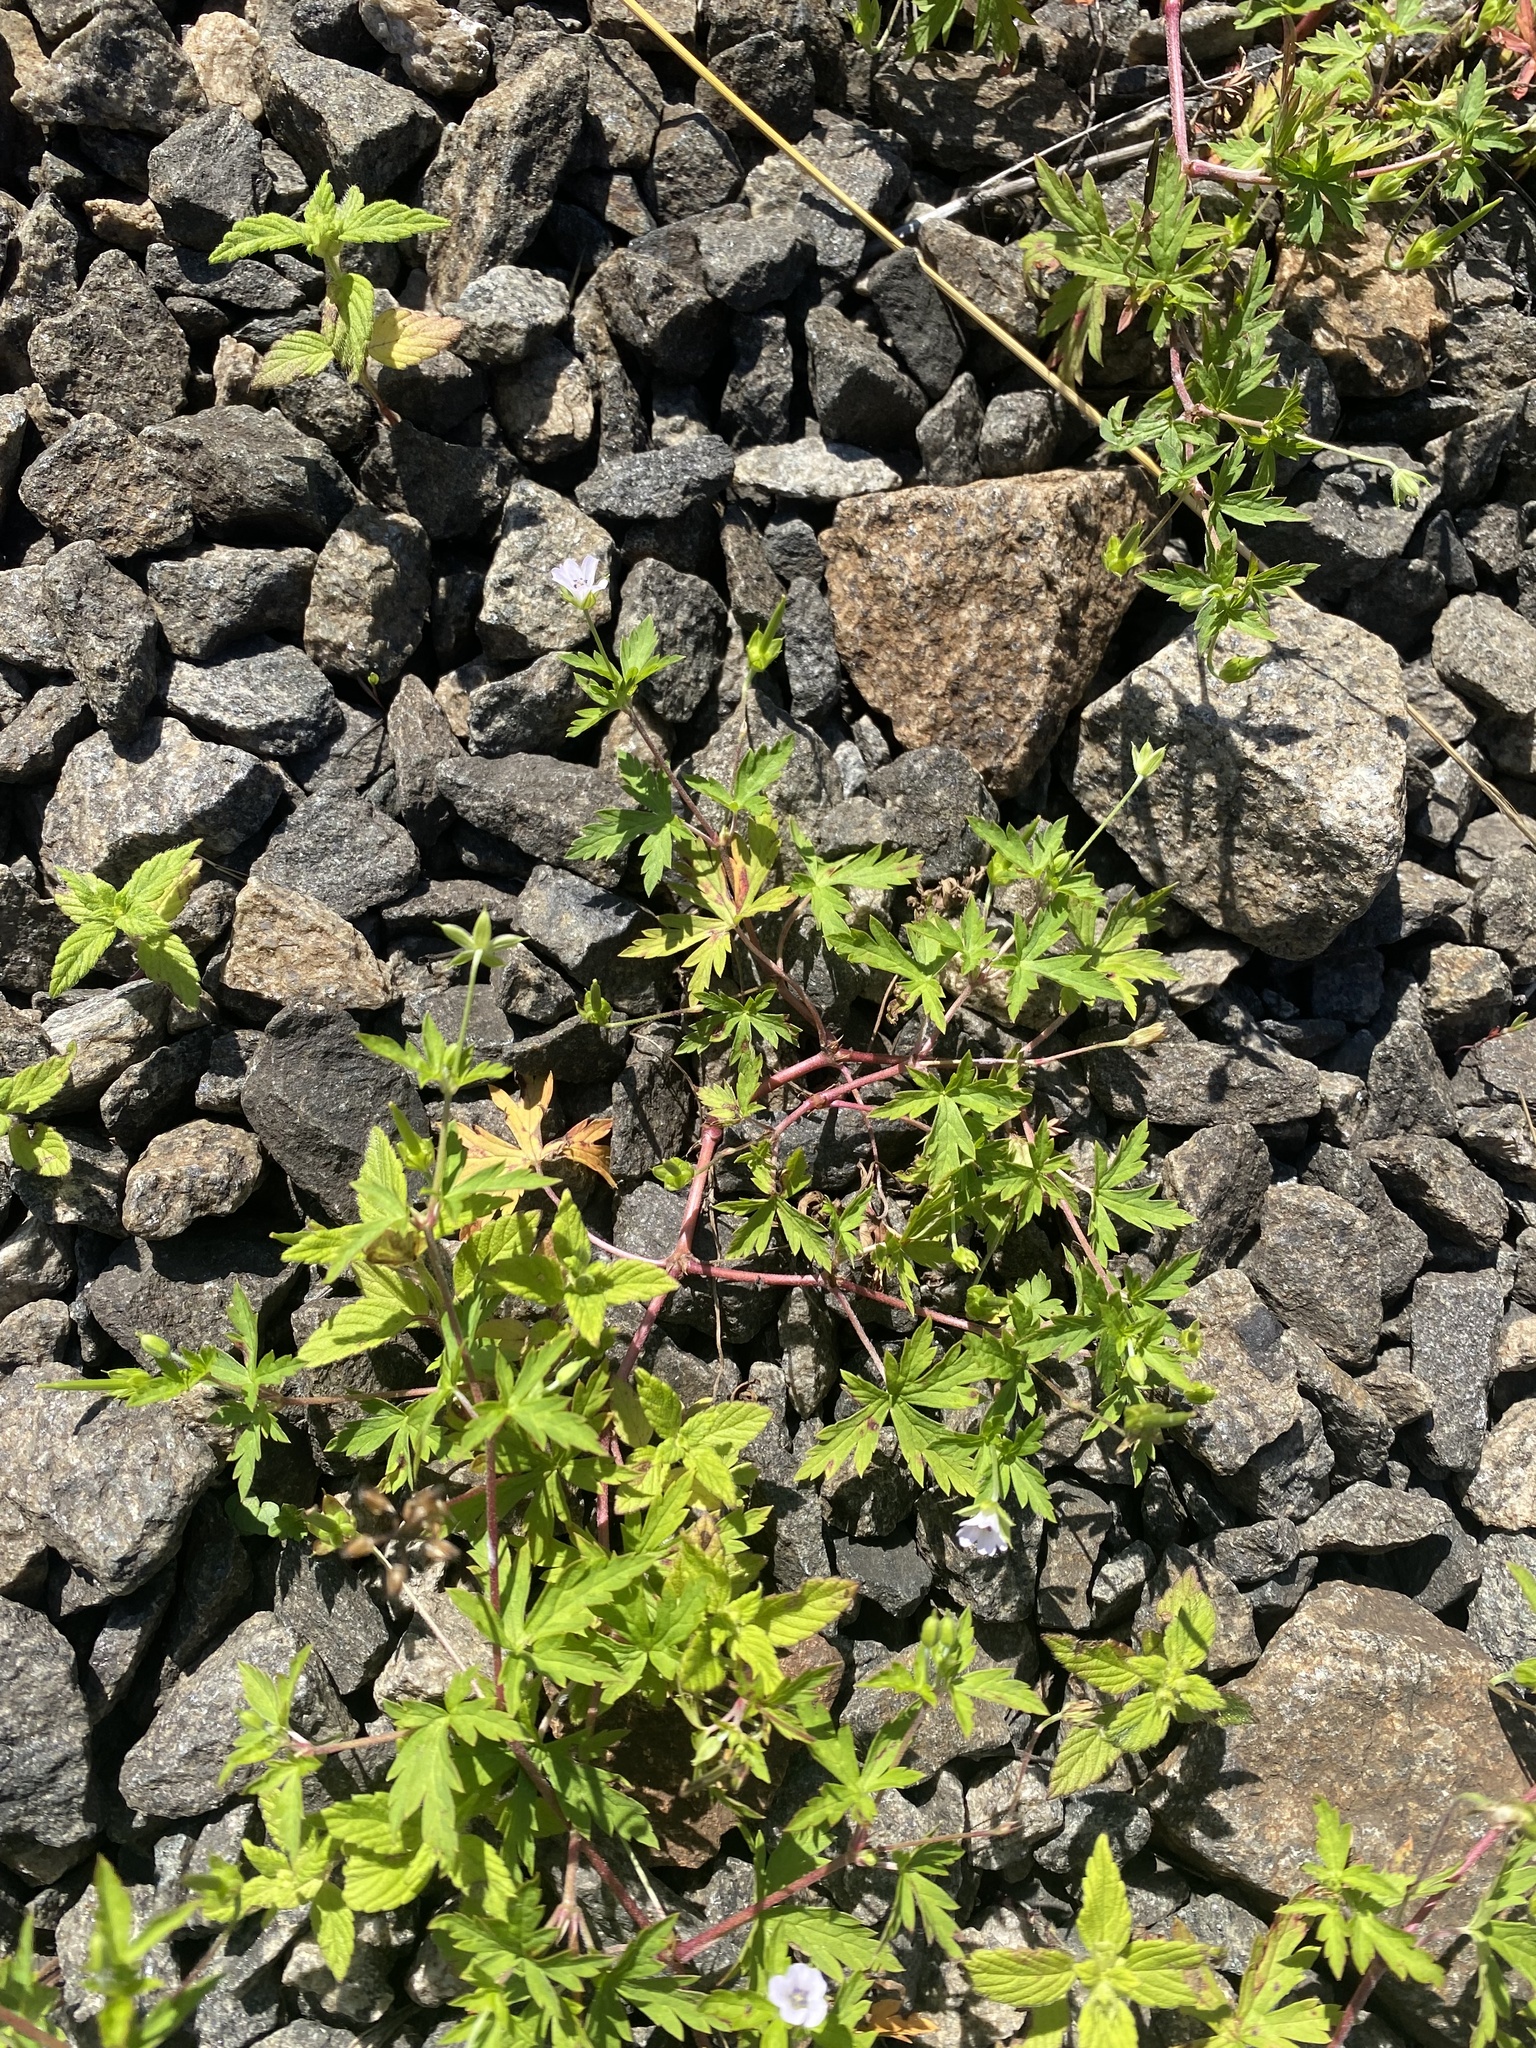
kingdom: Plantae
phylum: Tracheophyta
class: Magnoliopsida
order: Geraniales
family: Geraniaceae
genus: Geranium
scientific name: Geranium sibiricum
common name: Siberian crane's-bill
